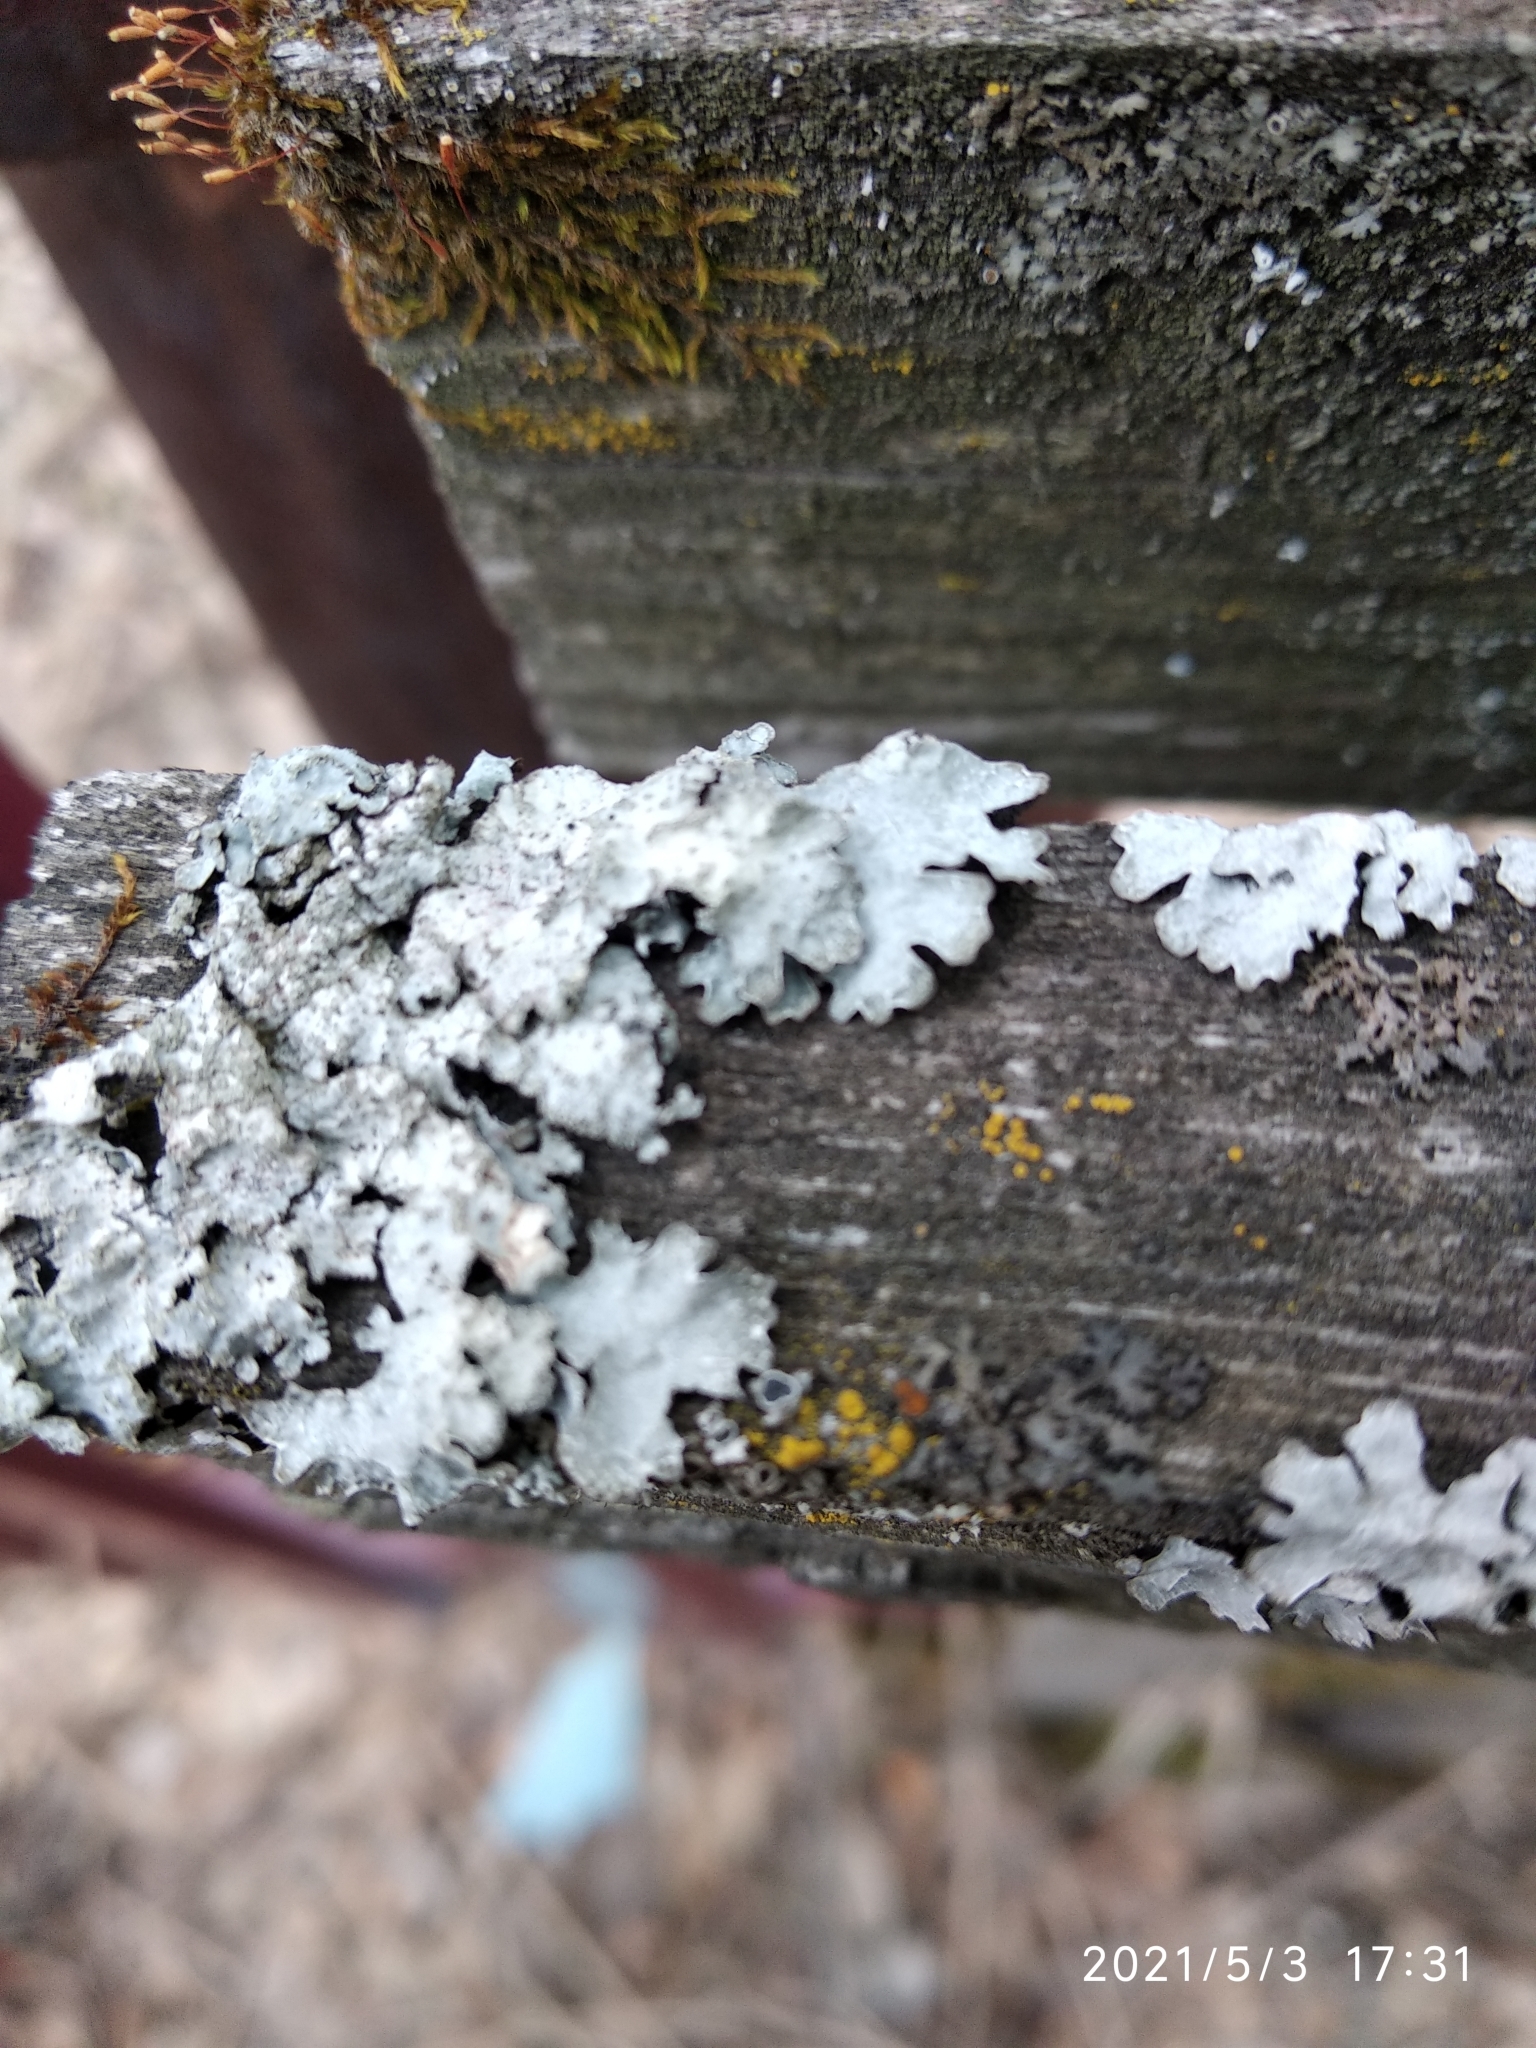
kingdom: Fungi
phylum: Ascomycota
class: Lecanoromycetes
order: Lecanorales
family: Parmeliaceae
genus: Parmelia
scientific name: Parmelia sulcata
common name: Netted shield lichen
